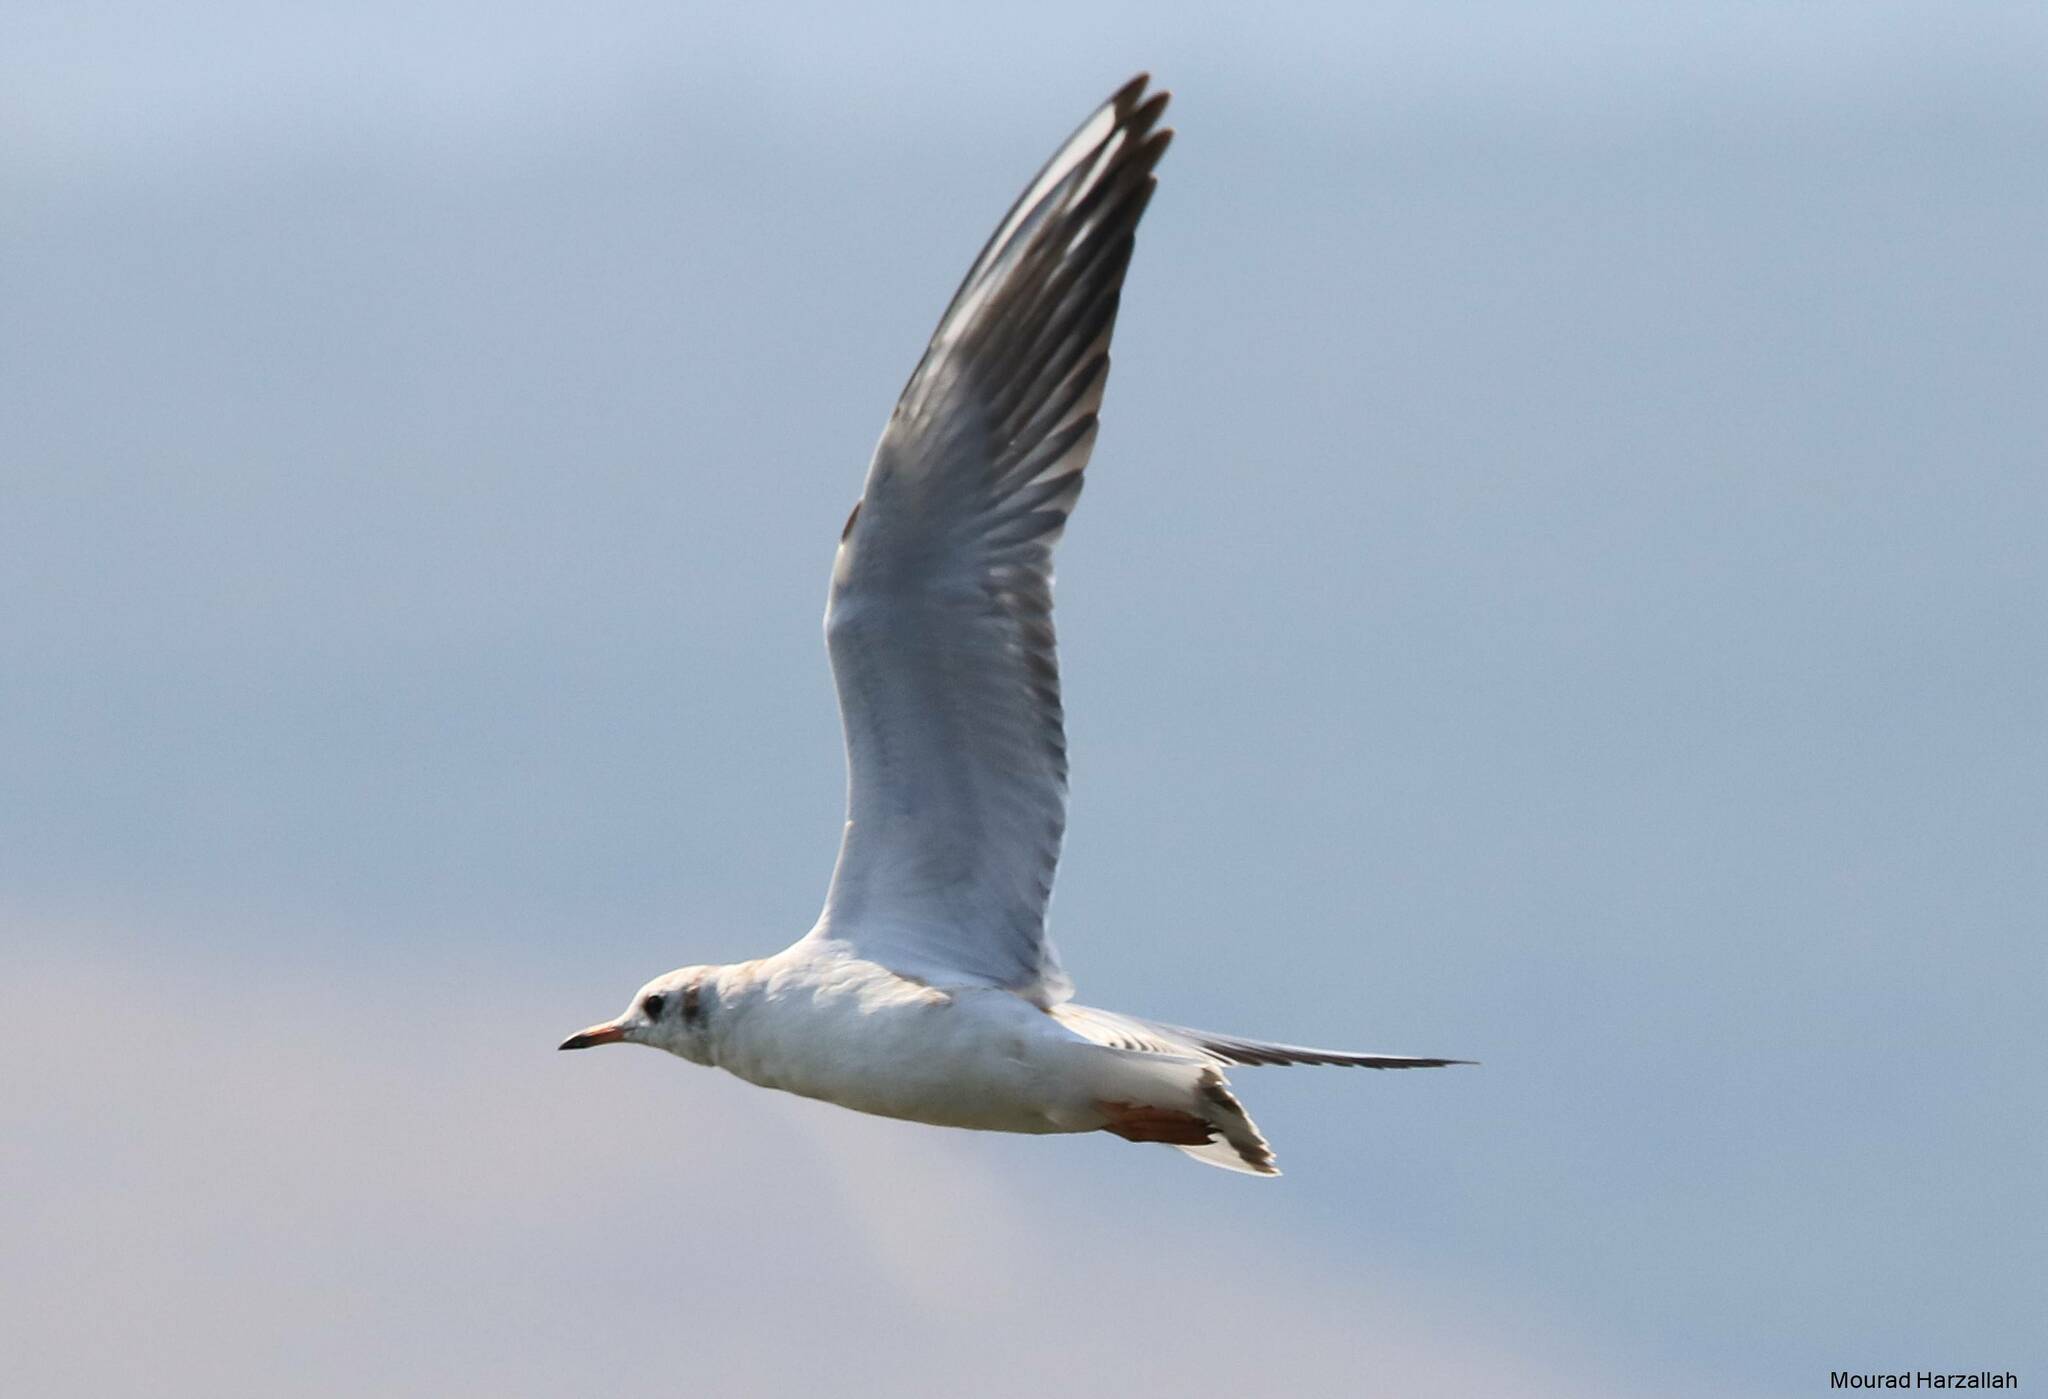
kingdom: Animalia
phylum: Chordata
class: Aves
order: Charadriiformes
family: Laridae
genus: Chroicocephalus
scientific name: Chroicocephalus ridibundus
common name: Black-headed gull
